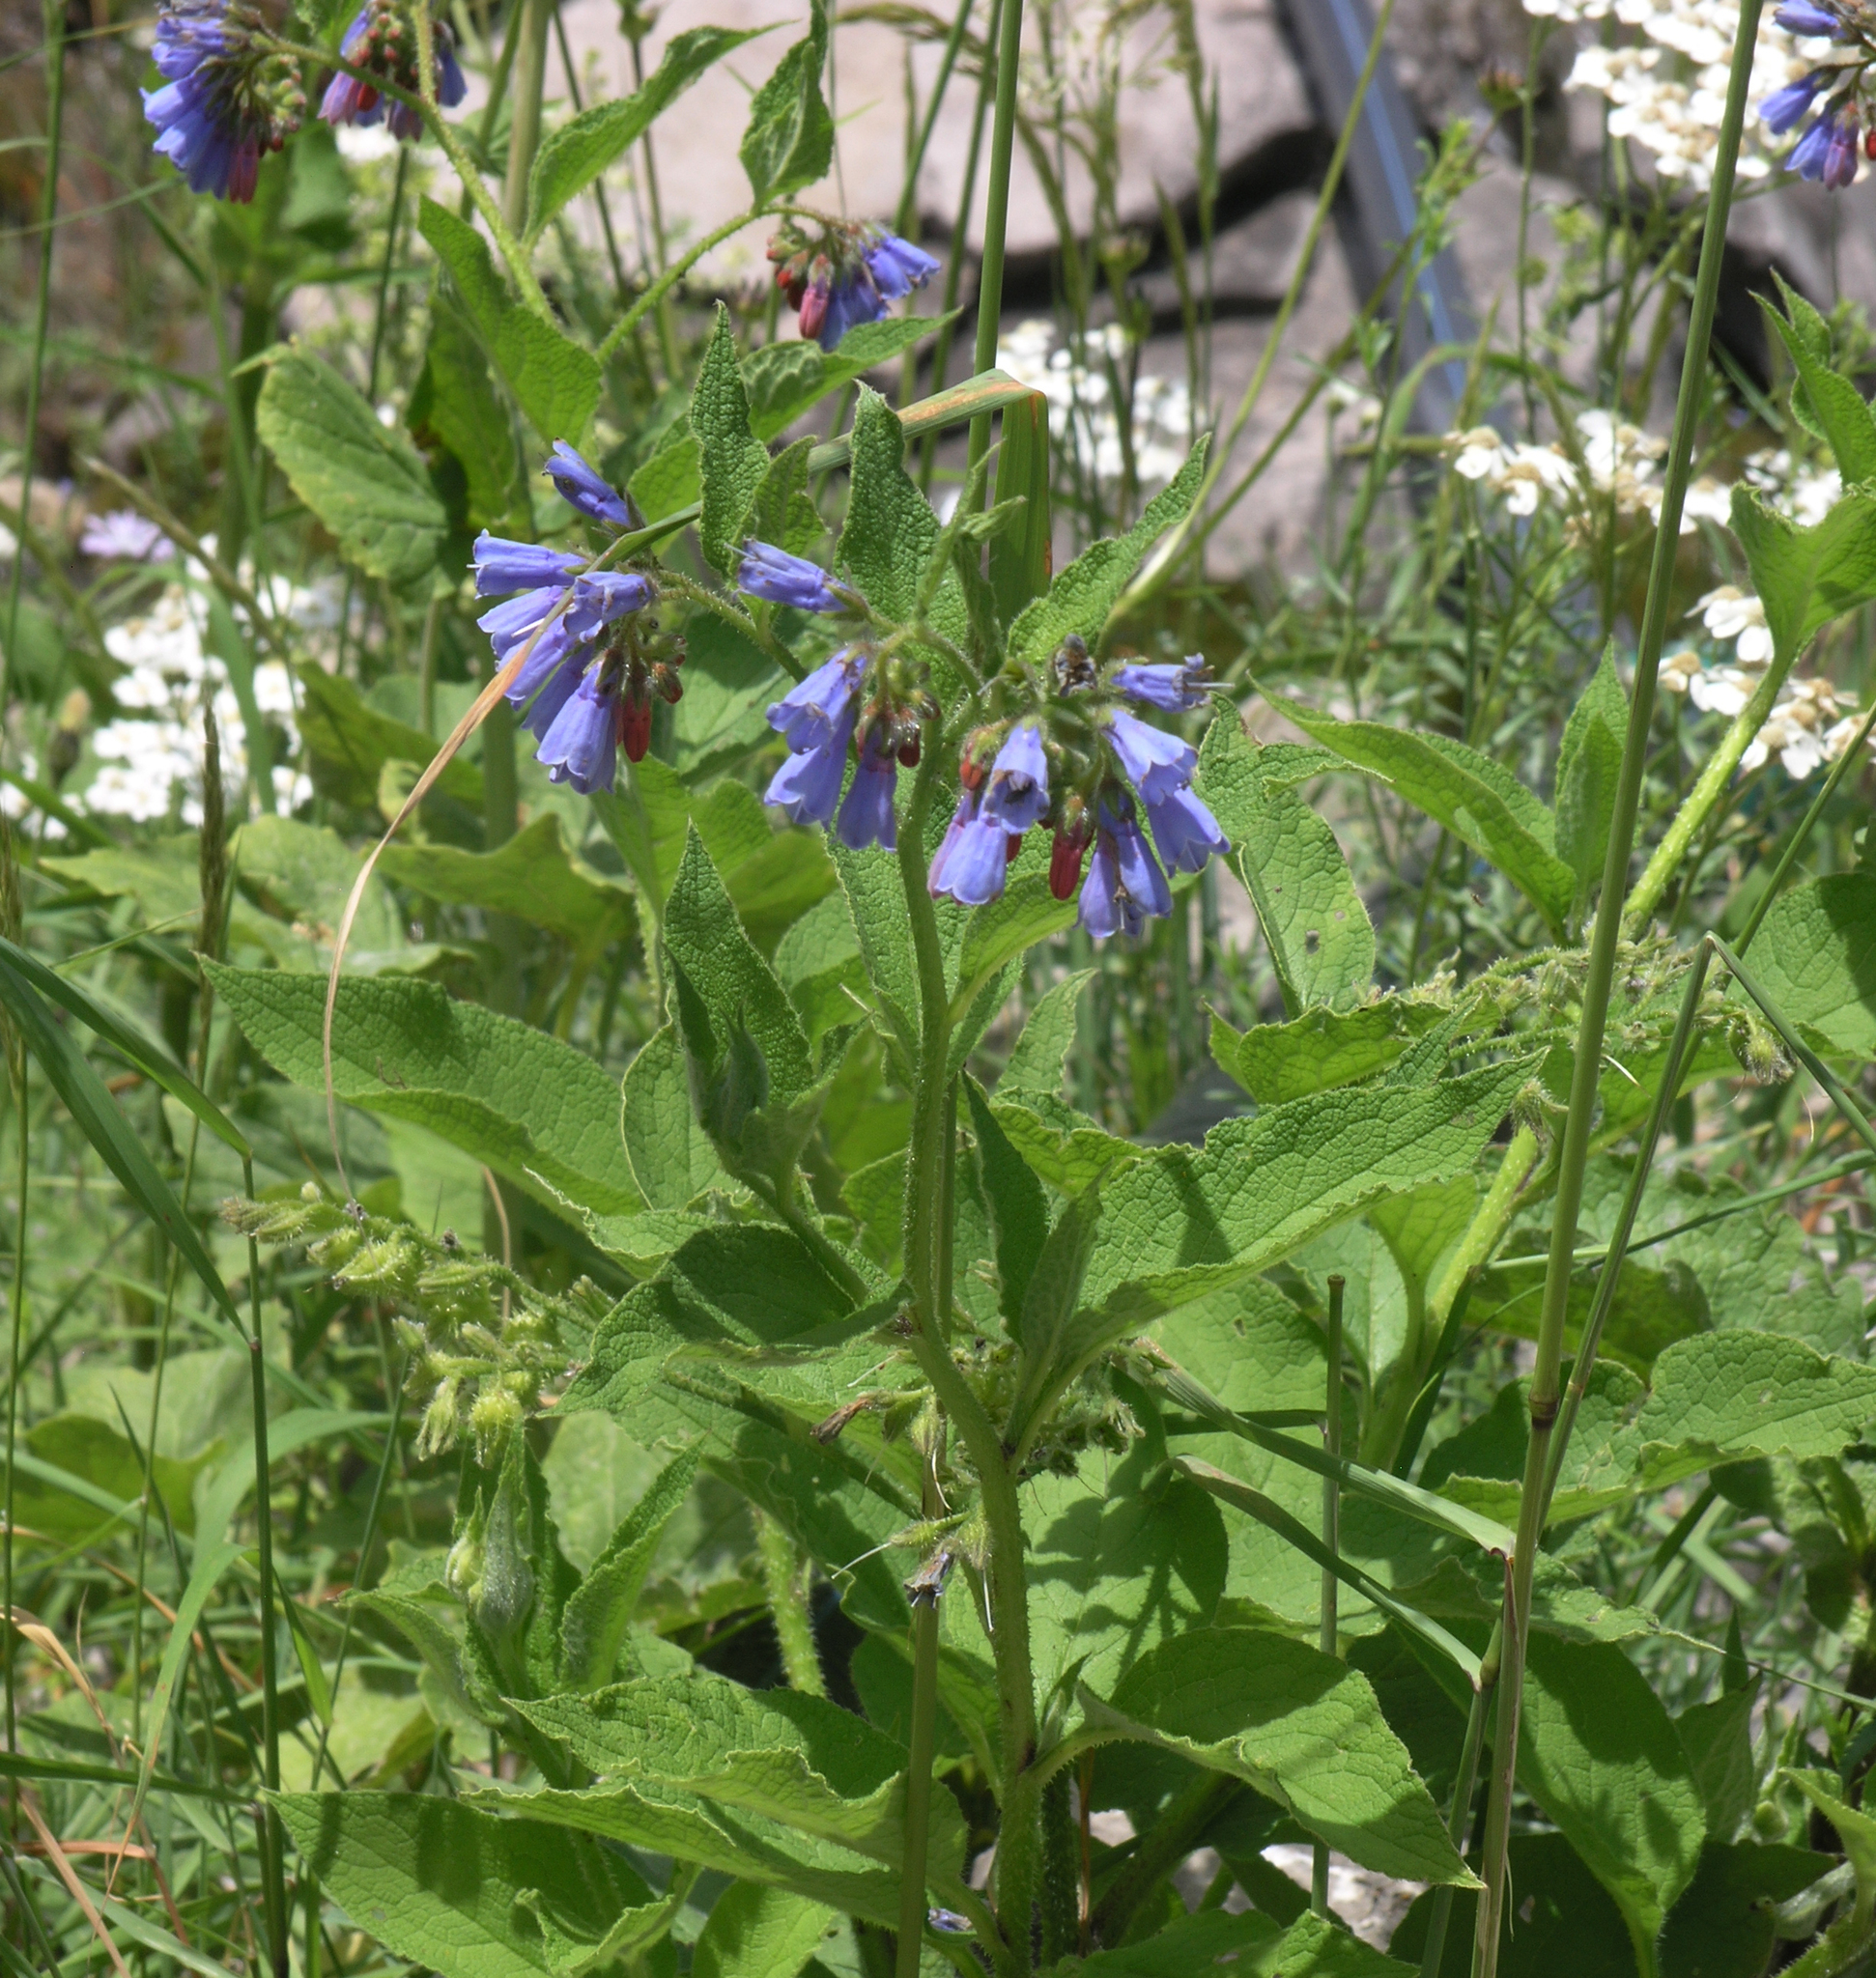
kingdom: Plantae
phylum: Tracheophyta
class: Magnoliopsida
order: Boraginales
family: Boraginaceae
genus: Symphytum
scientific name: Symphytum asperum
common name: Prickly comfrey
